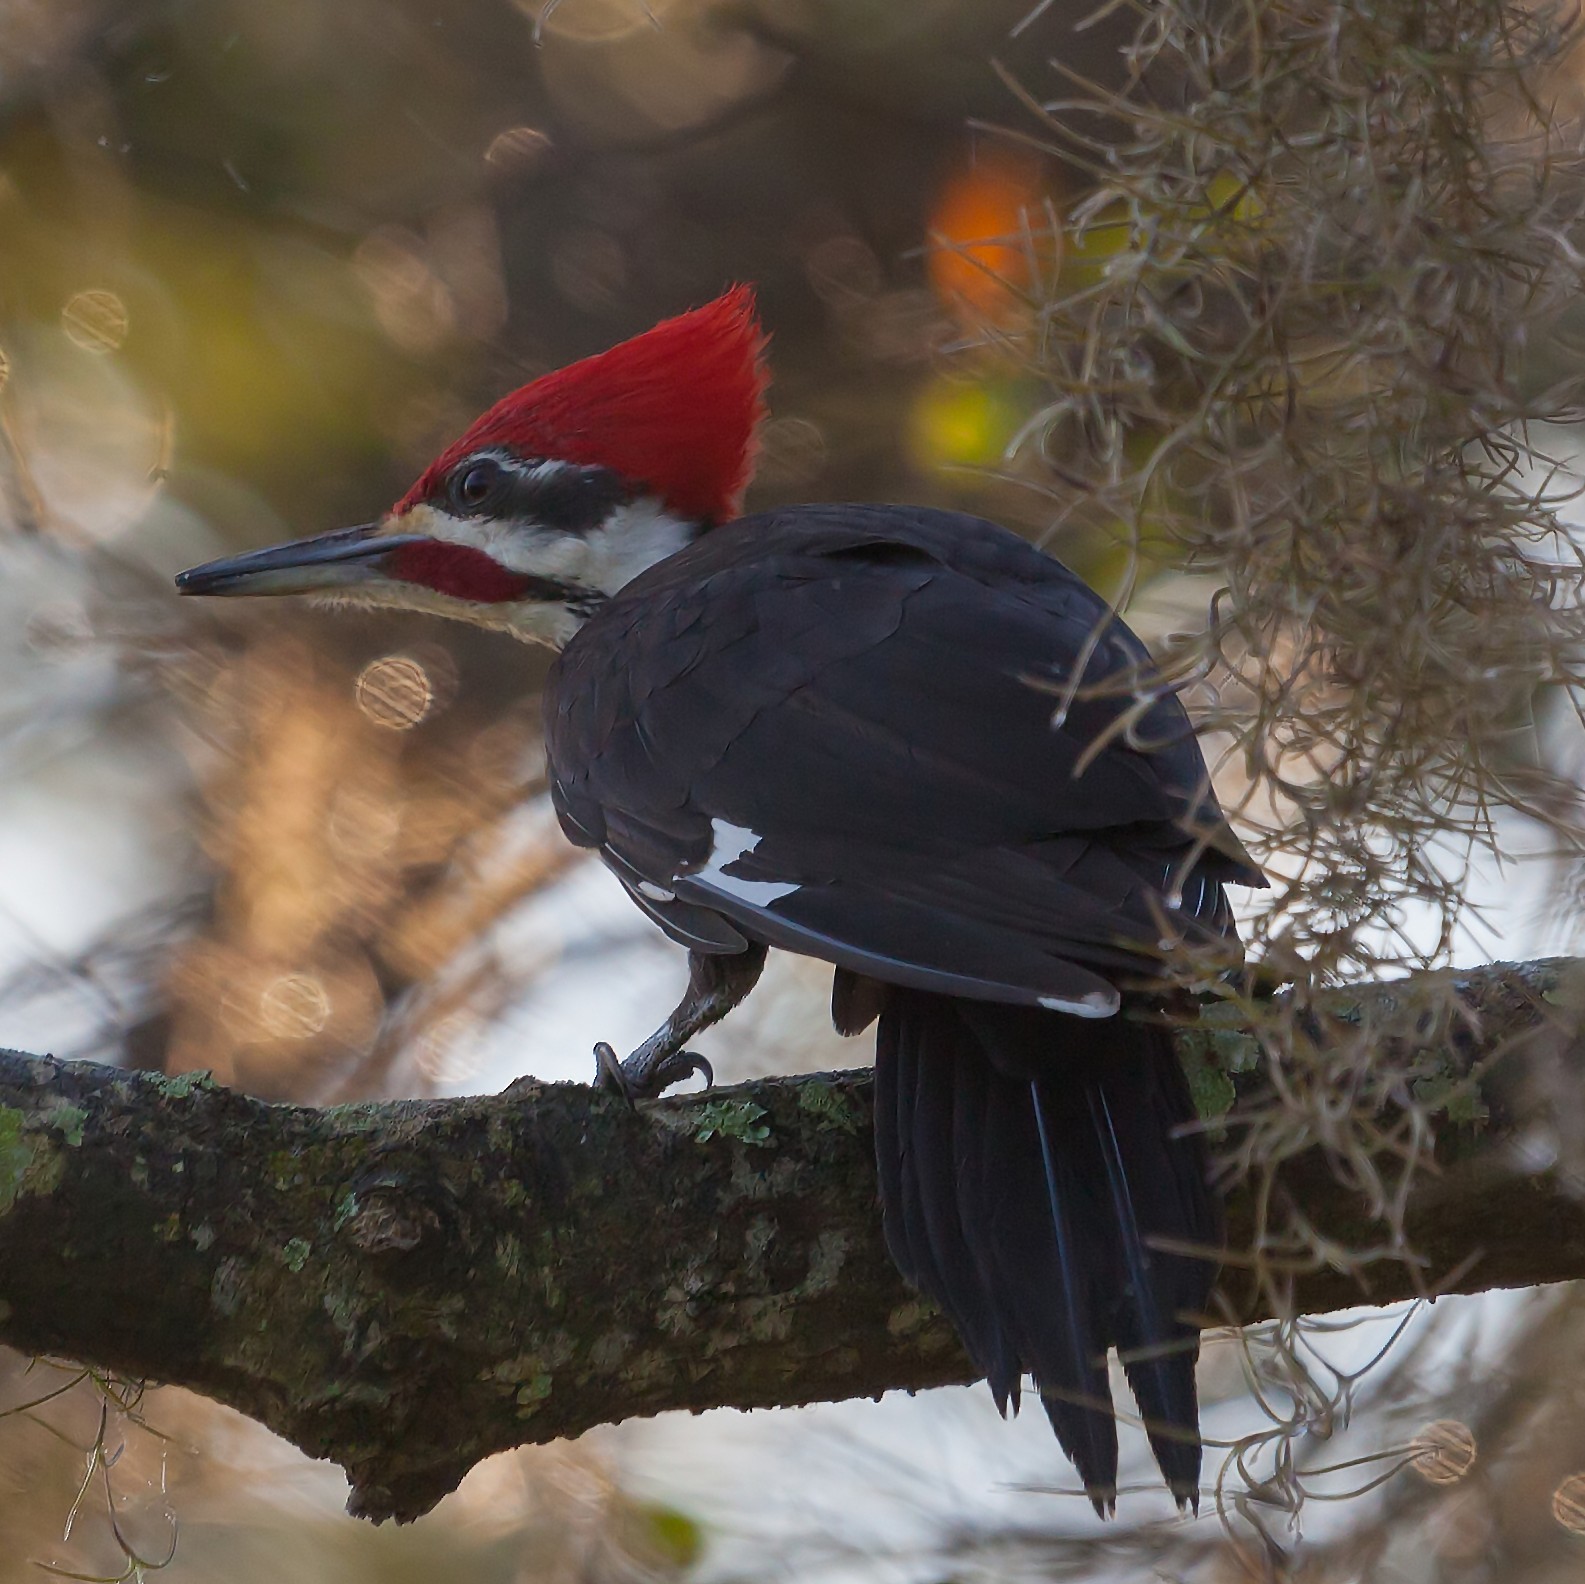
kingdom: Animalia
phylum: Chordata
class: Aves
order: Piciformes
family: Picidae
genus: Dryocopus
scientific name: Dryocopus pileatus
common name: Pileated woodpecker
